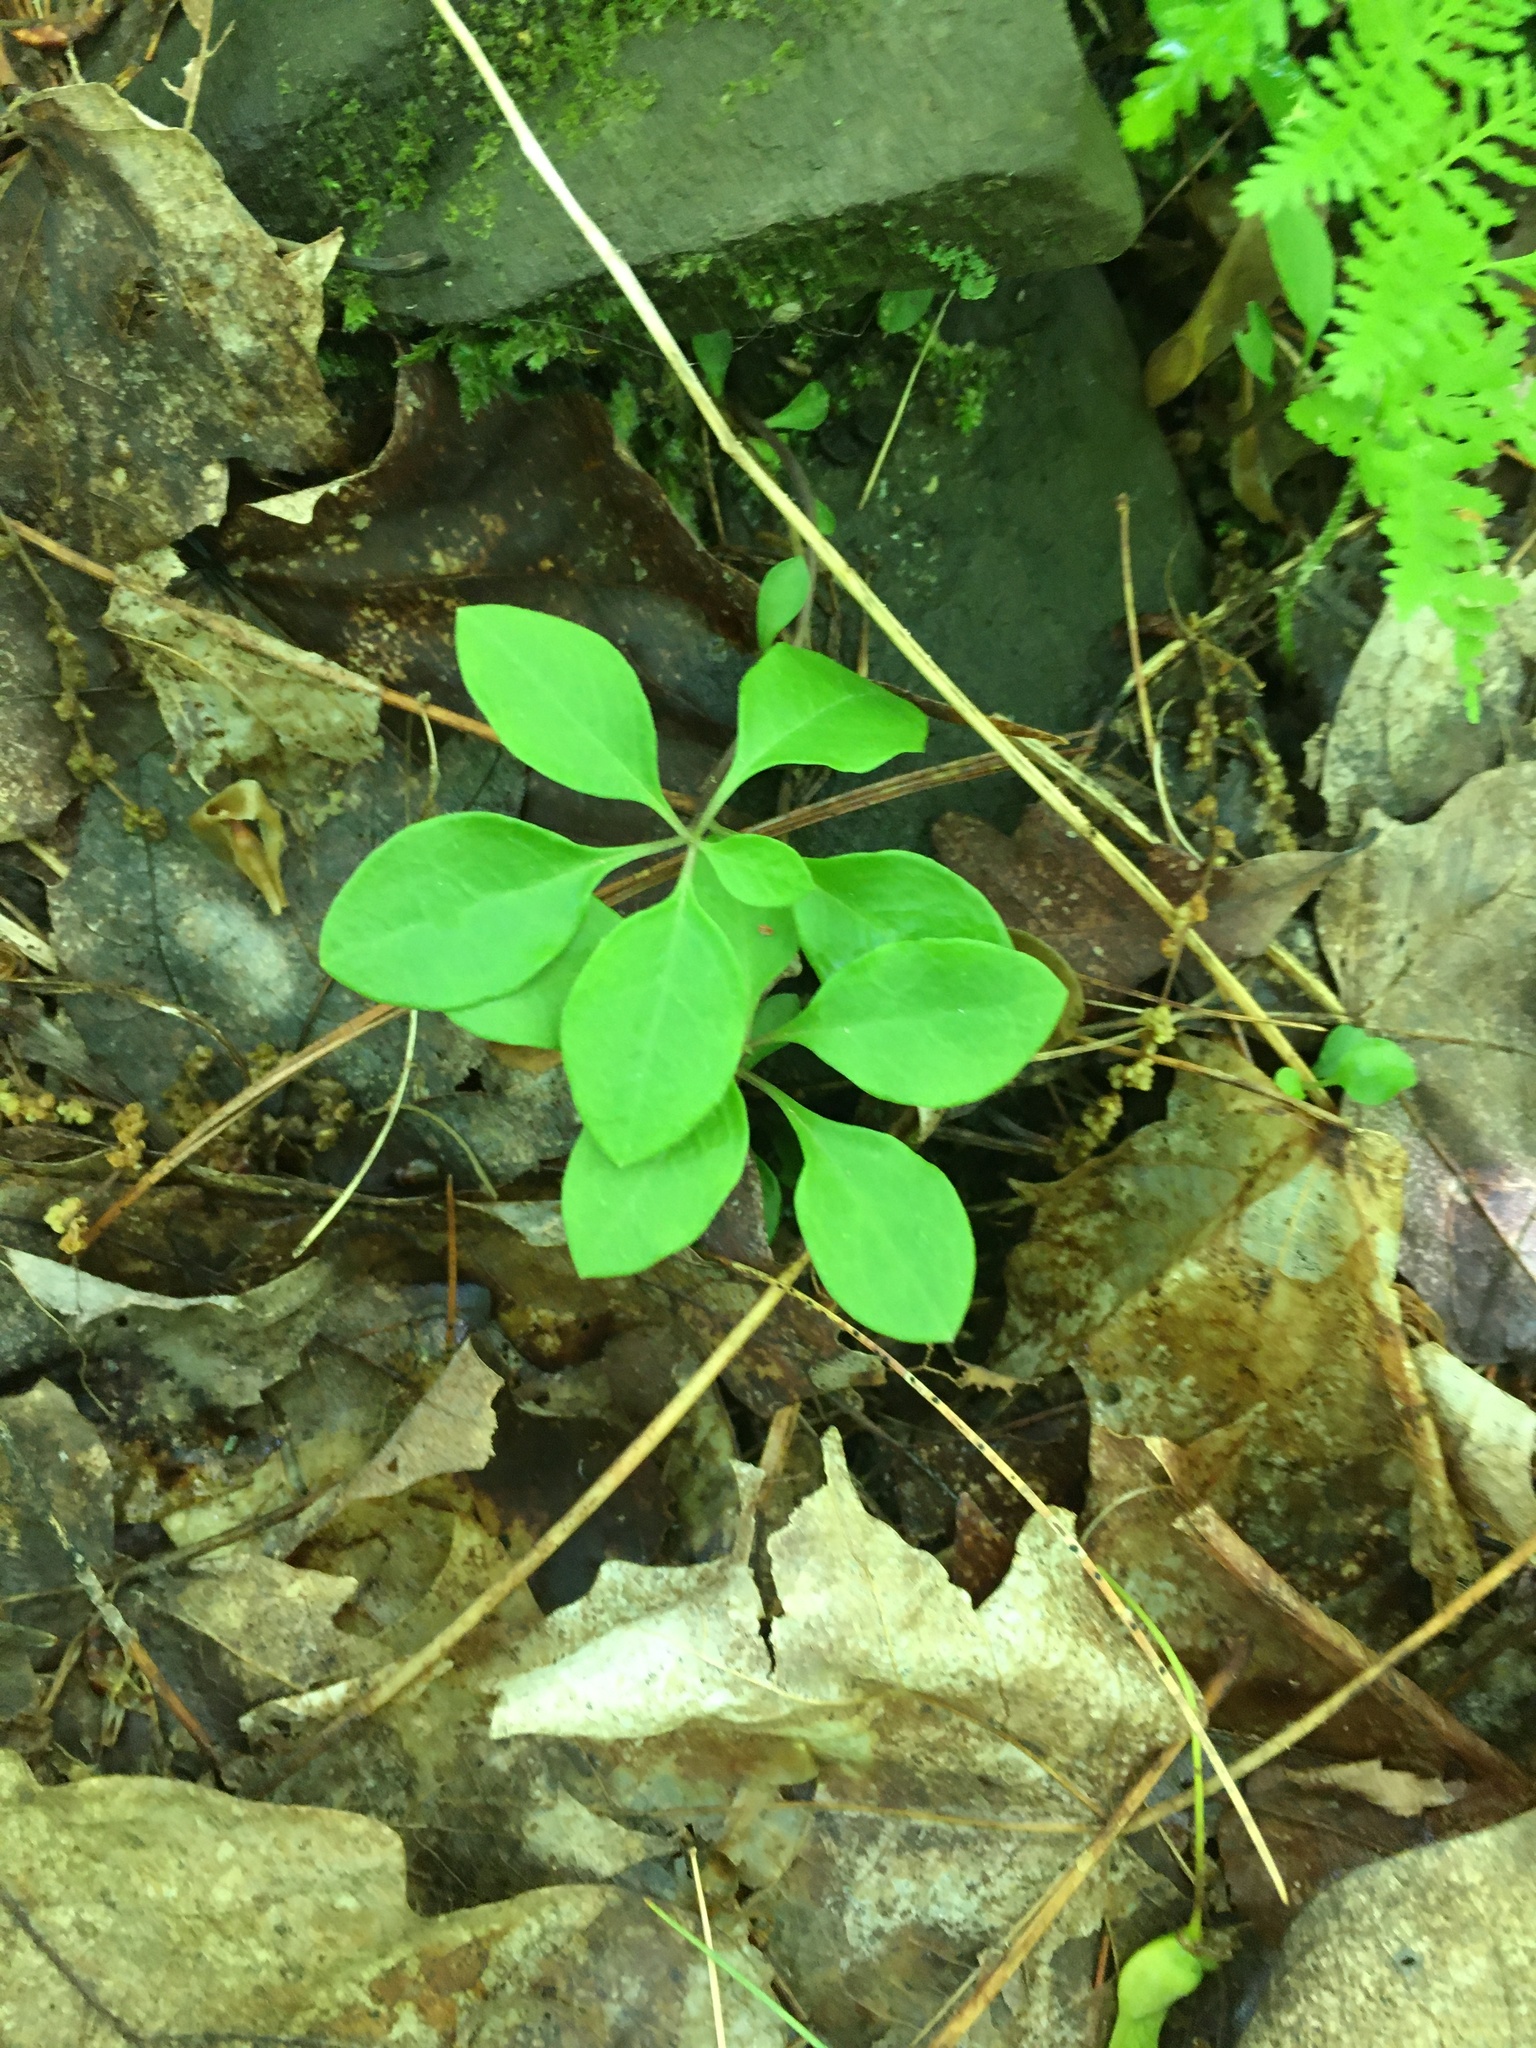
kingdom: Plantae
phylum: Tracheophyta
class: Magnoliopsida
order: Fabales
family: Polygalaceae
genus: Polygaloides
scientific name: Polygaloides paucifolia
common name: Bird-on-the-wing
